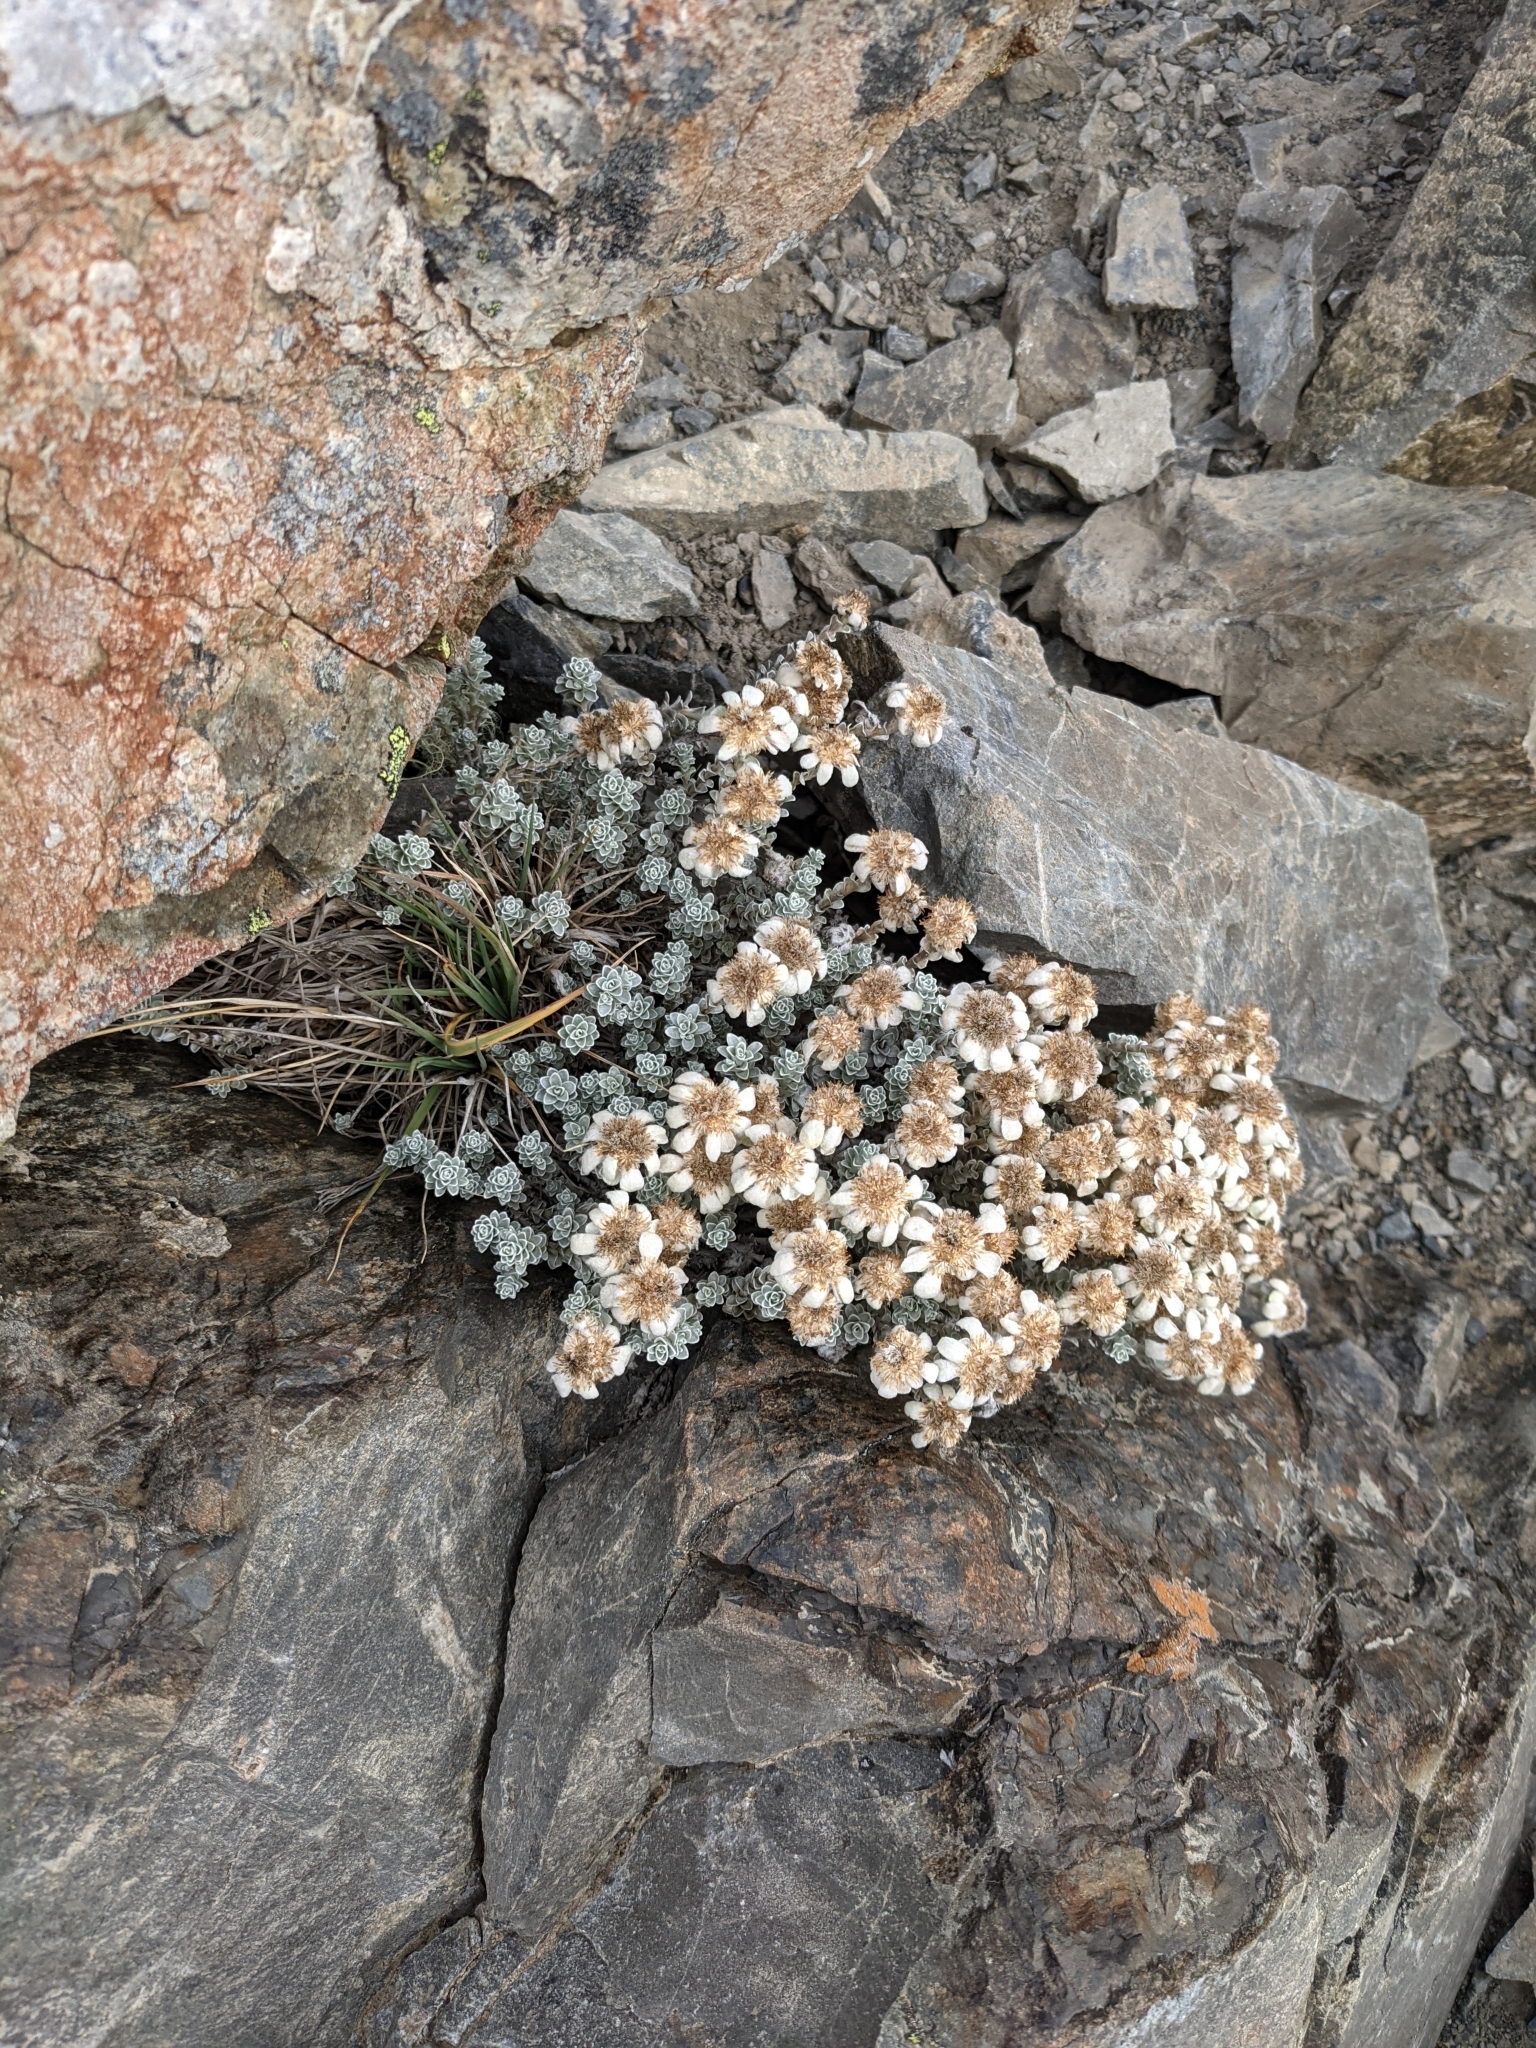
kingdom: Plantae
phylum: Tracheophyta
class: Magnoliopsida
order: Asterales
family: Asteraceae
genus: Leucogenes
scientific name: Leucogenes grandiceps
